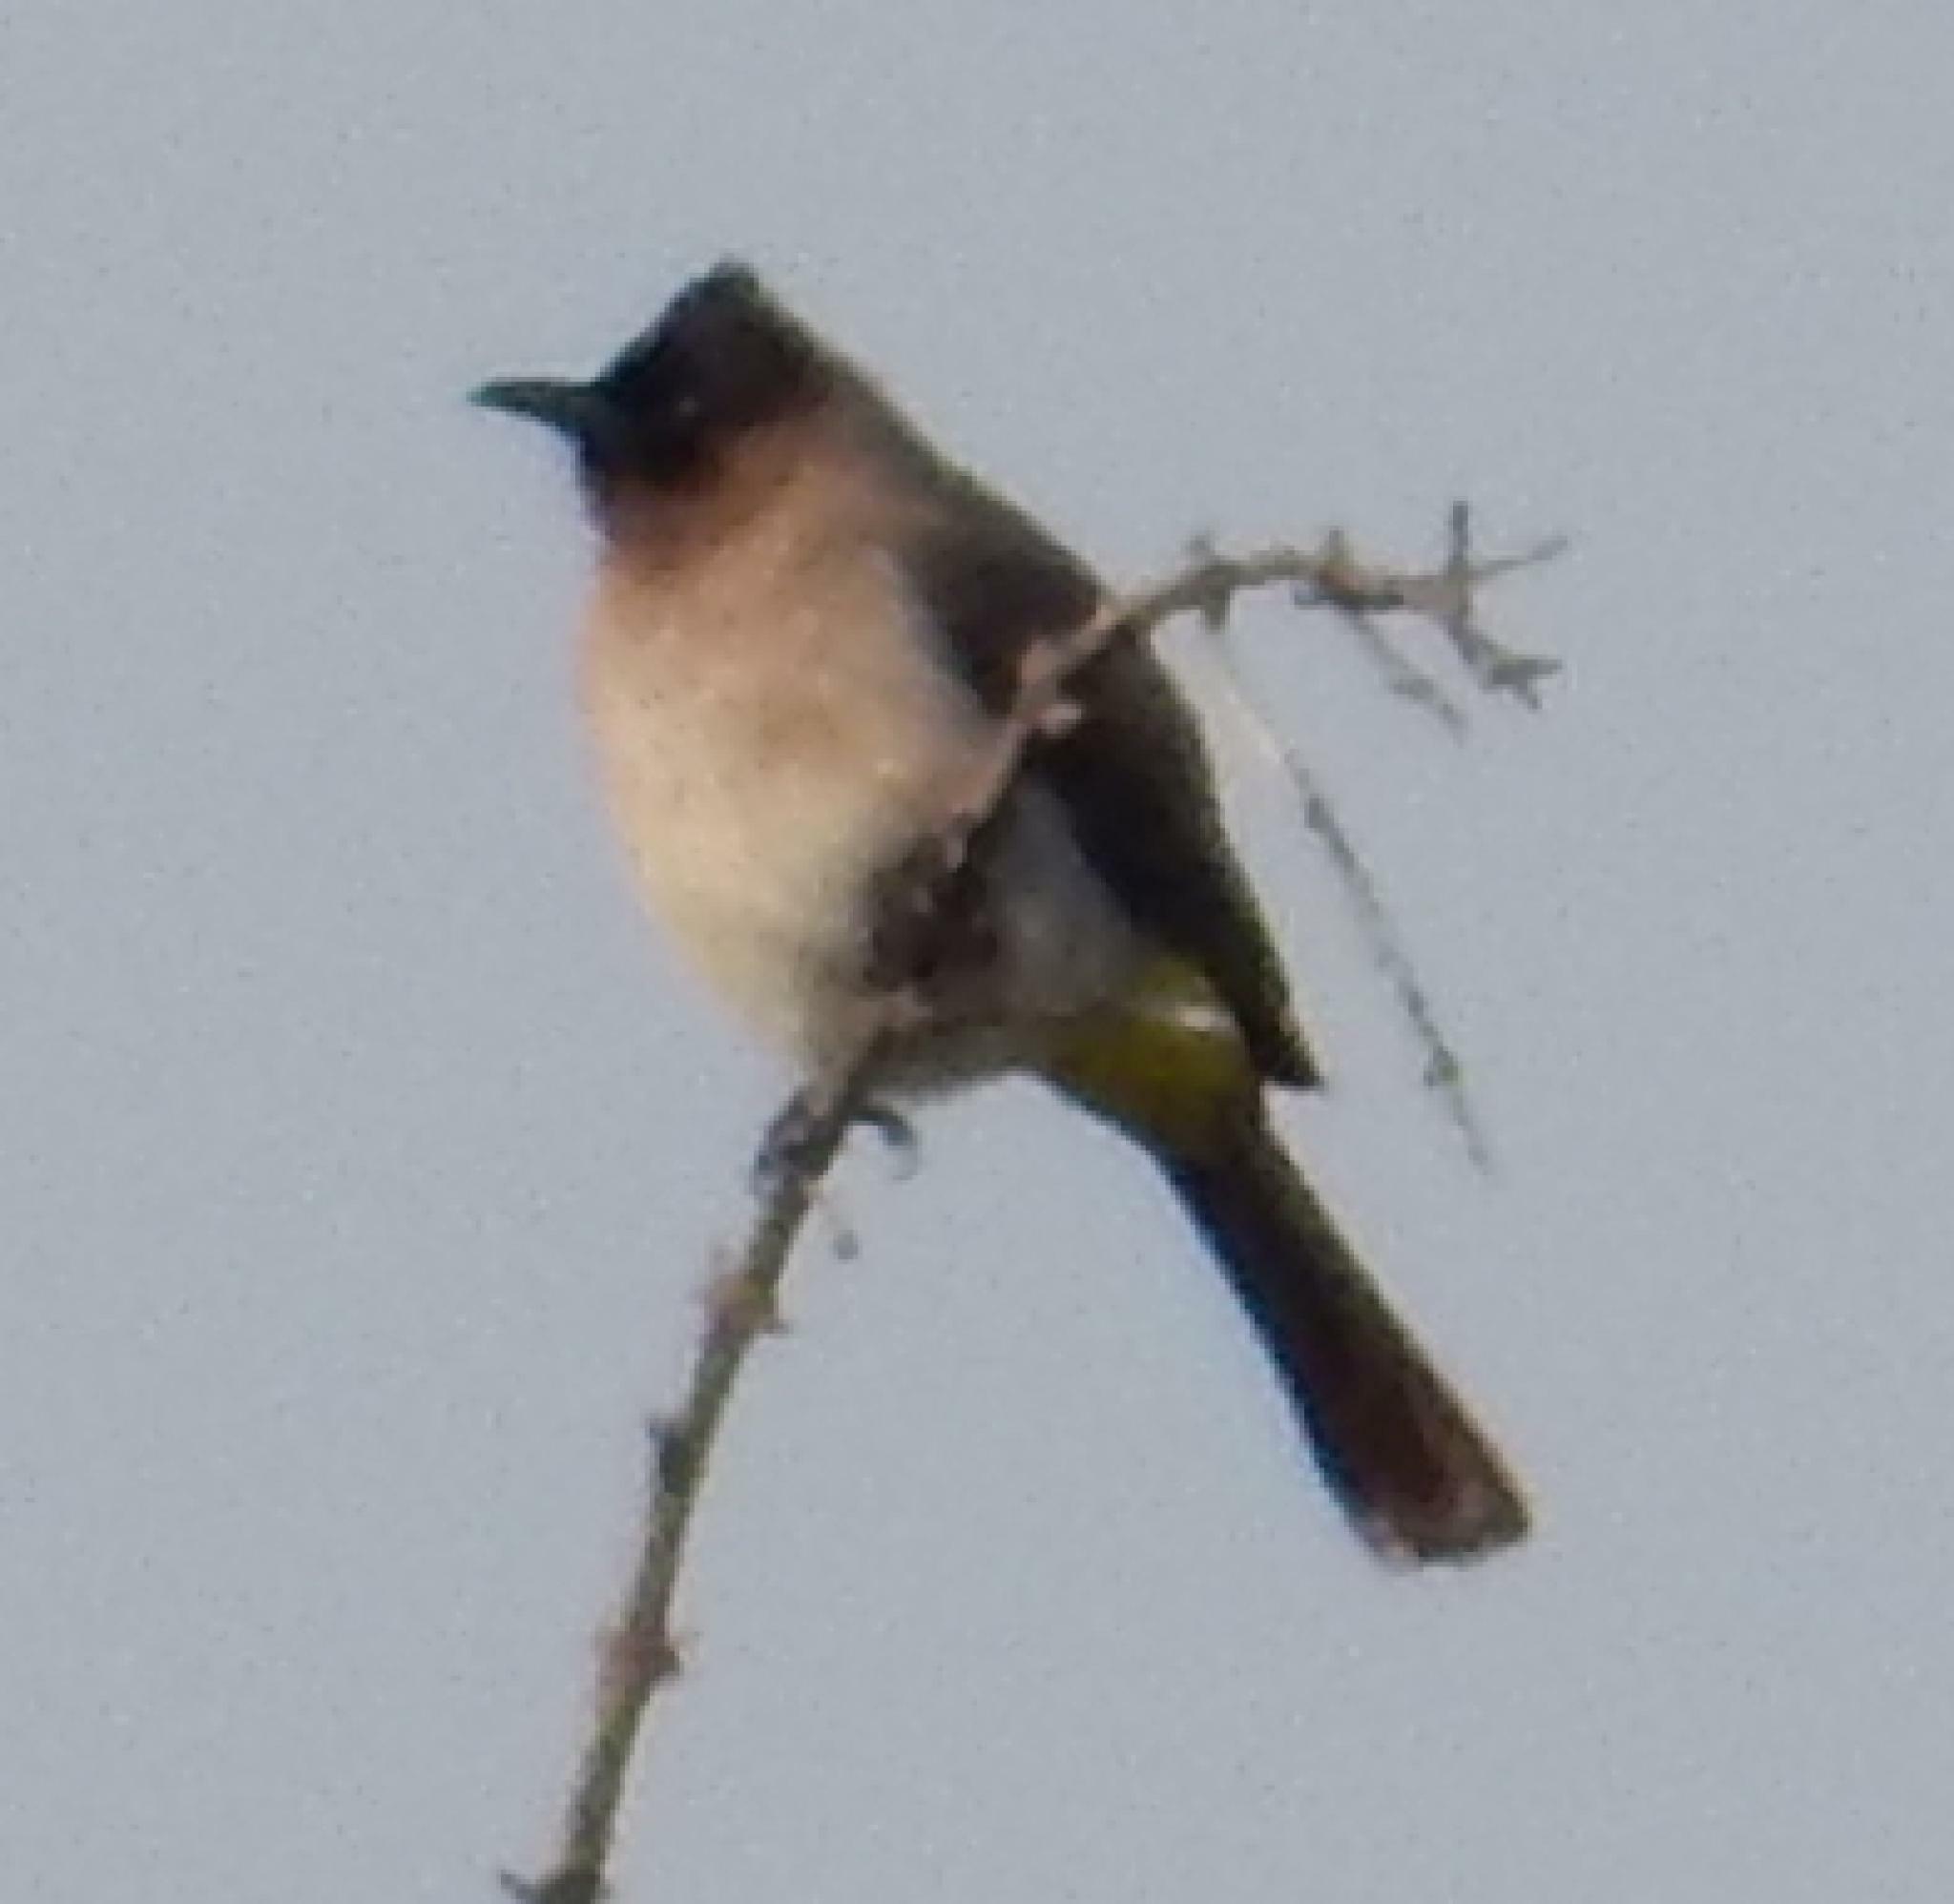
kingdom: Animalia
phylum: Chordata
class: Aves
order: Passeriformes
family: Pycnonotidae
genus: Pycnonotus
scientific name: Pycnonotus barbatus
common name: Common bulbul
